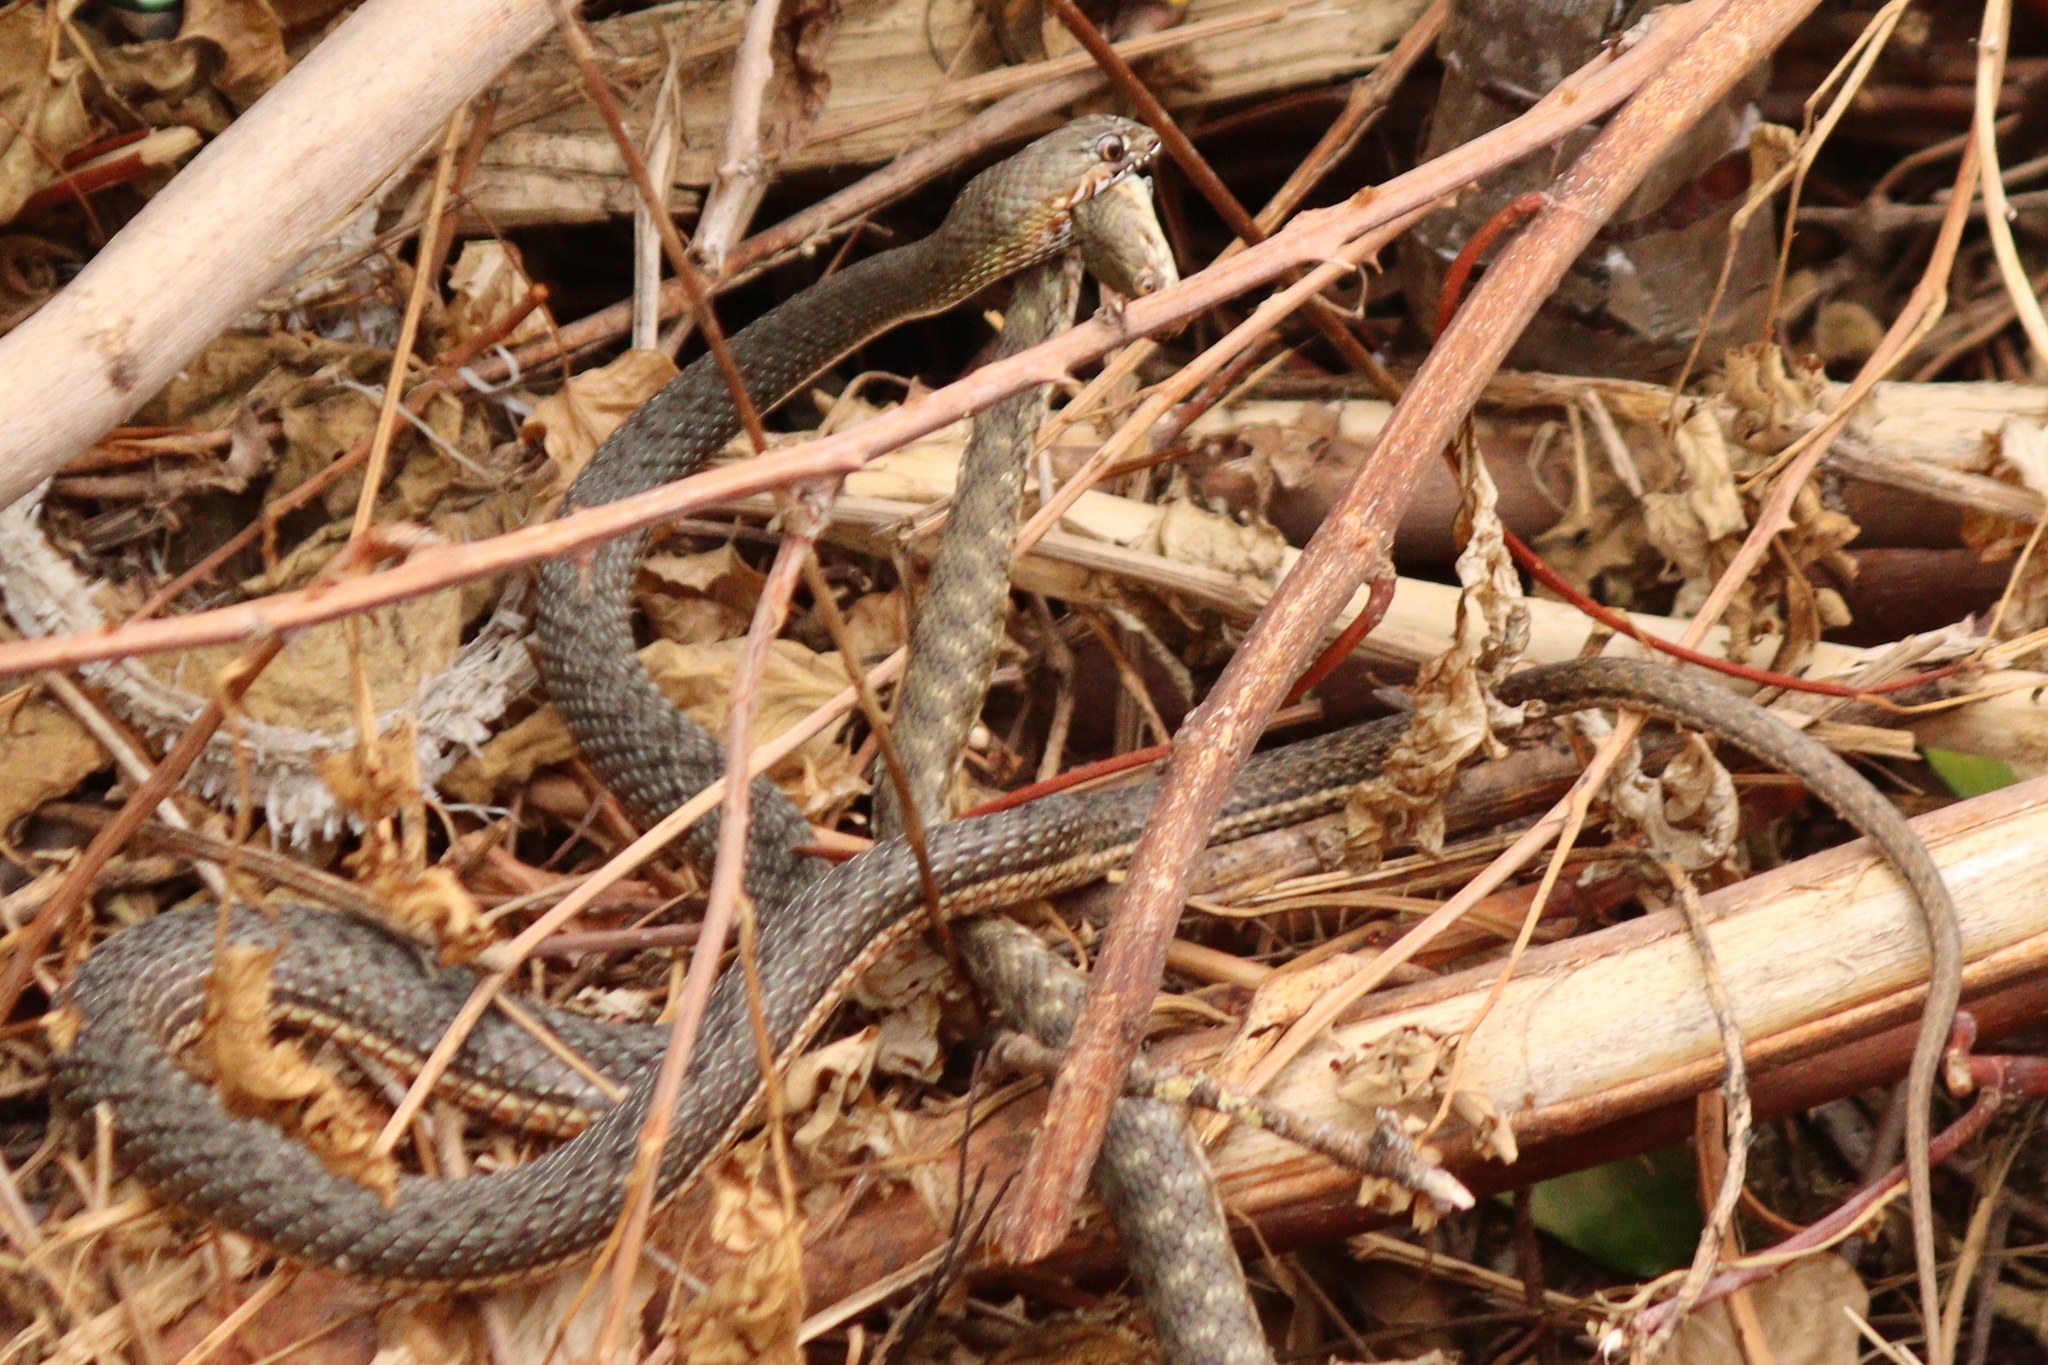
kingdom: Animalia
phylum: Chordata
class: Squamata
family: Psammophiidae
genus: Malpolon
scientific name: Malpolon insignitus
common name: Eastern montpellier snake
